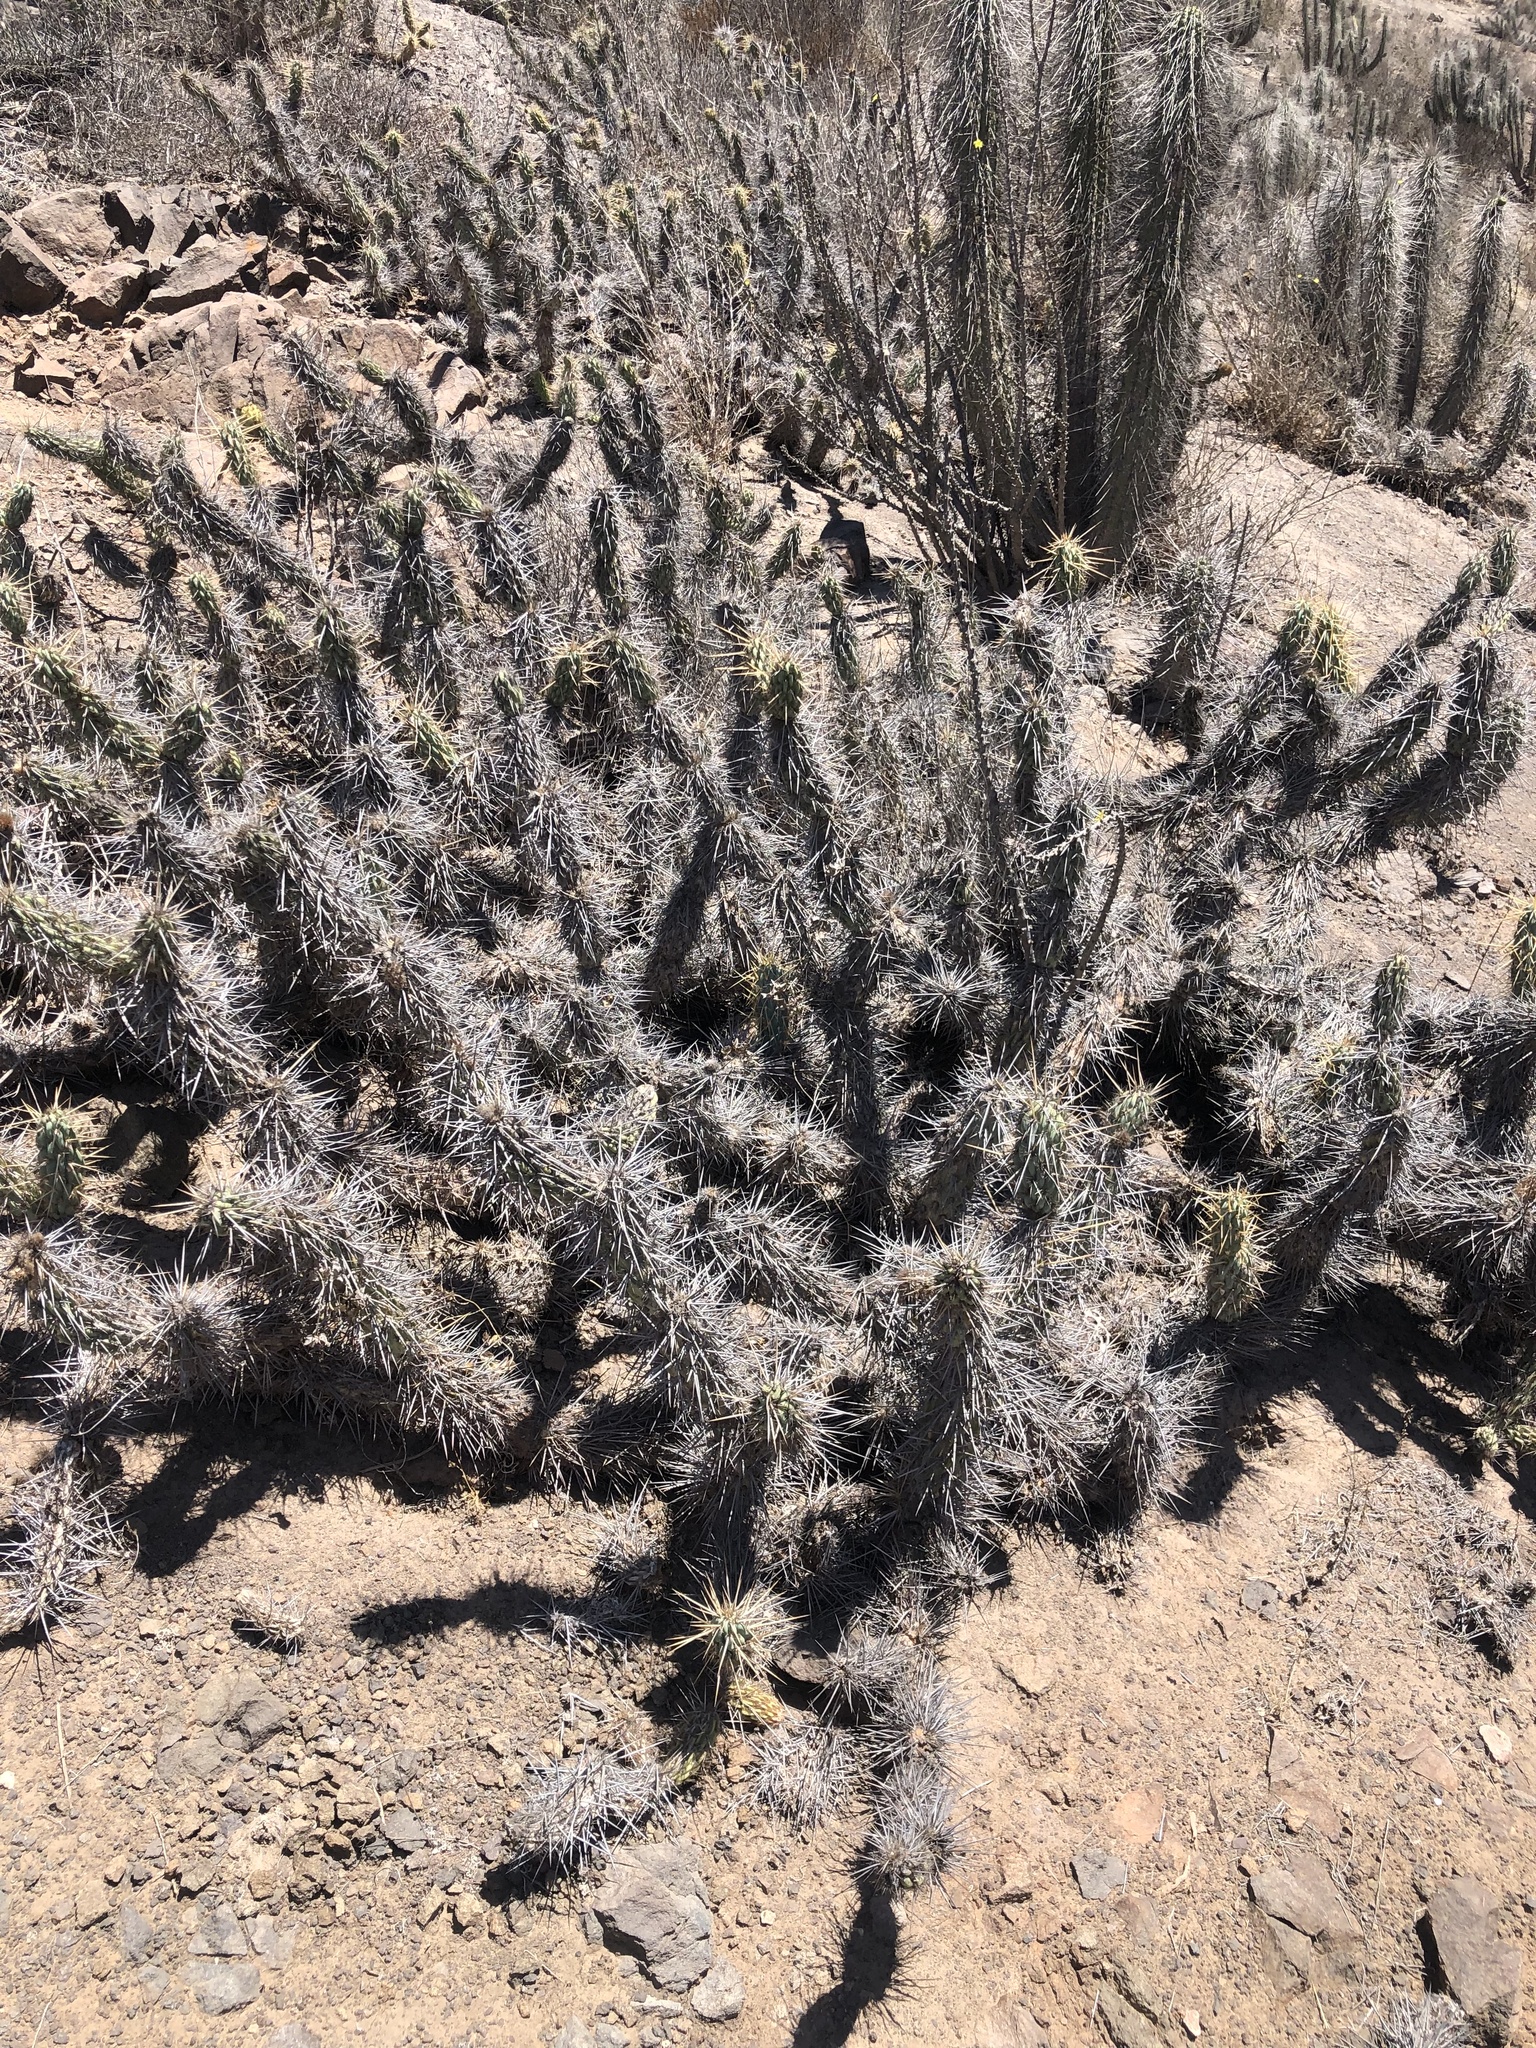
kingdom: Plantae
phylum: Tracheophyta
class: Magnoliopsida
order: Caryophyllales
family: Cactaceae
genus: Miqueliopuntia
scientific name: Miqueliopuntia miquelii
